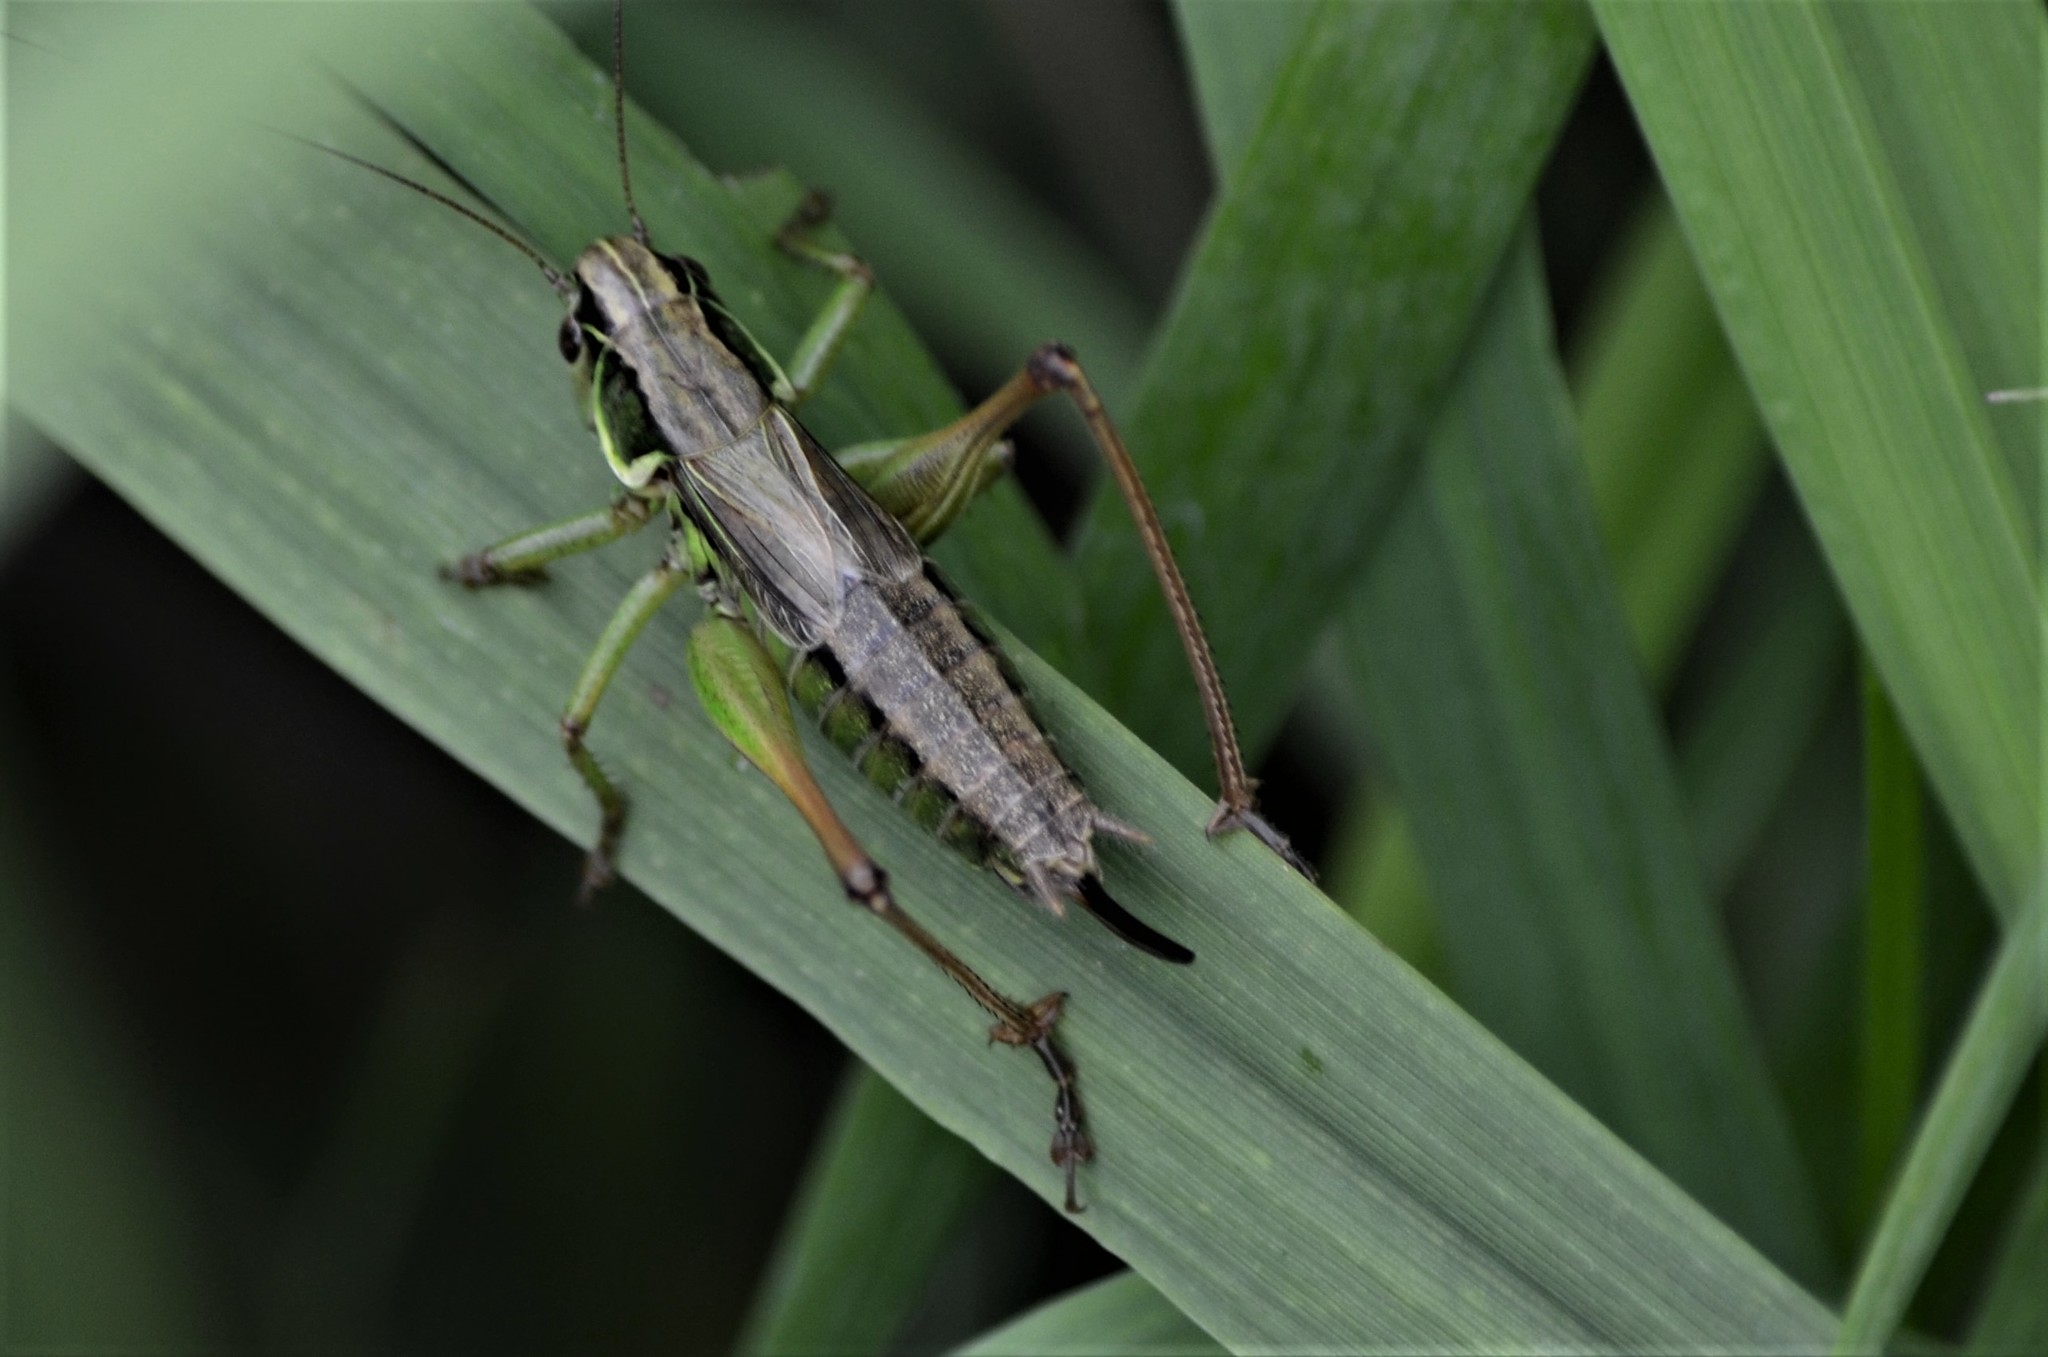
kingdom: Animalia
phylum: Arthropoda
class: Insecta
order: Orthoptera
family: Tettigoniidae
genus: Roeseliana
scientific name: Roeseliana roeselii
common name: Roesel's bush cricket
